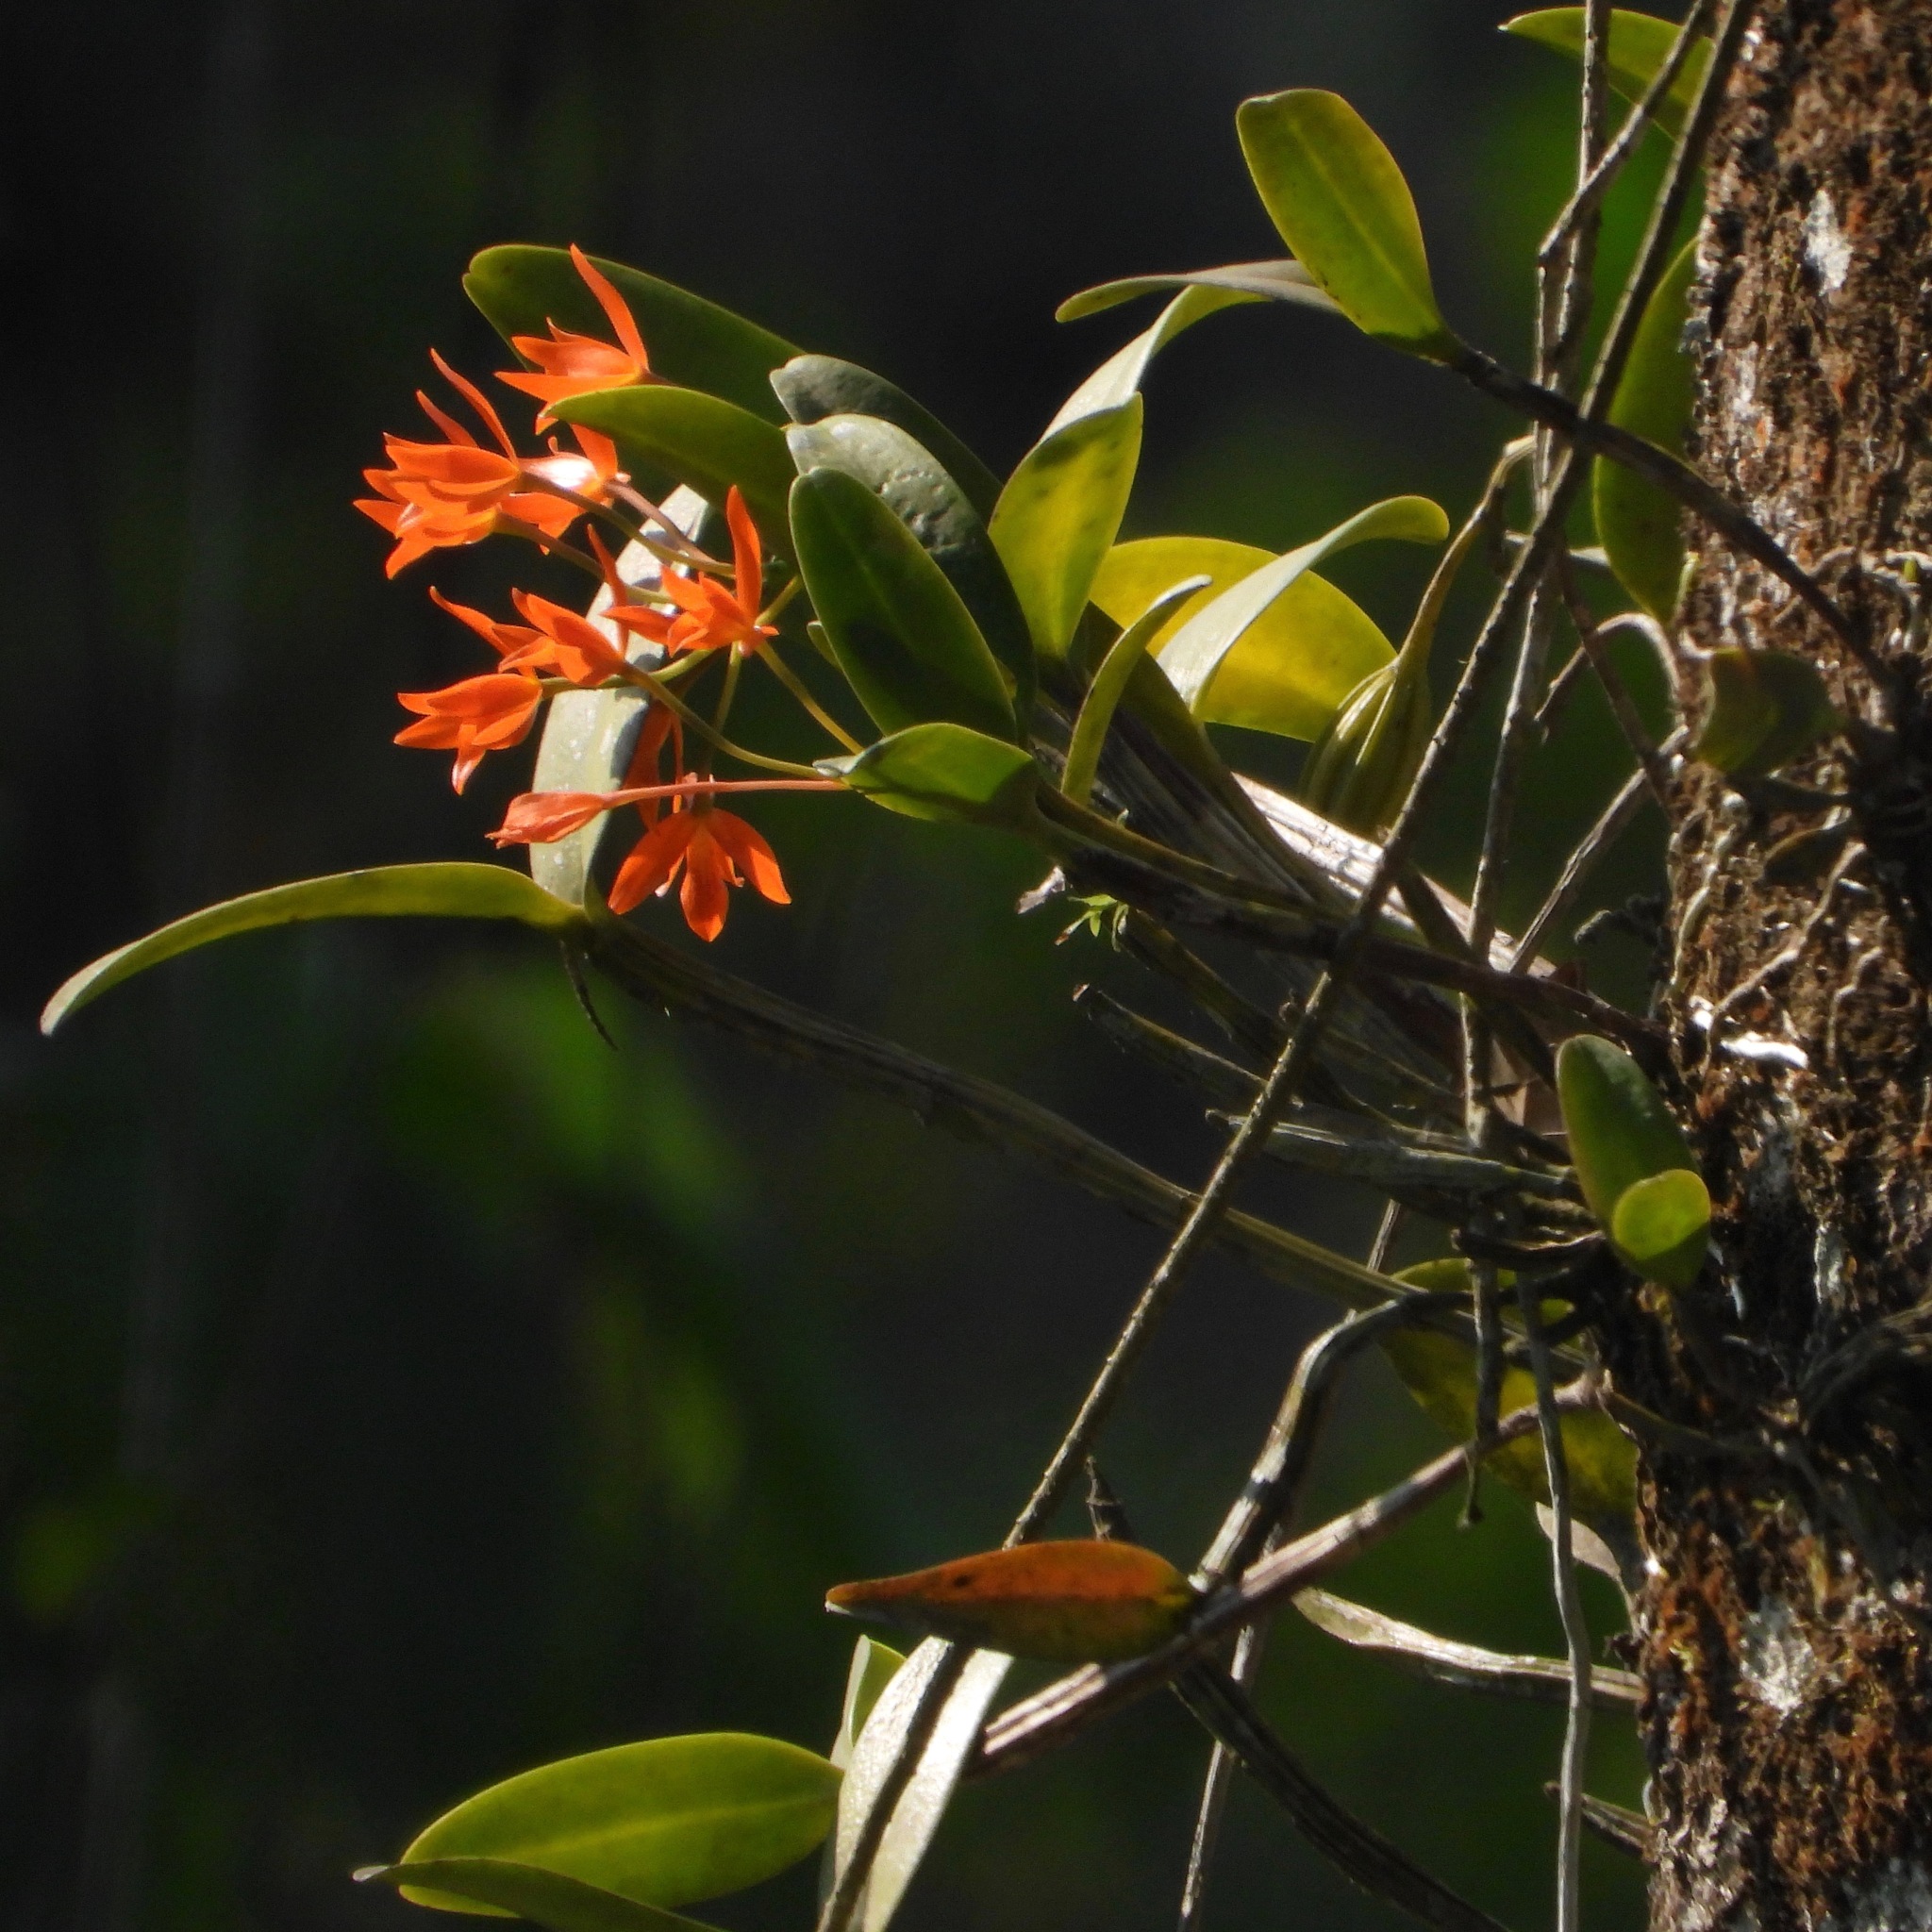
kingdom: Plantae
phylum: Tracheophyta
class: Liliopsida
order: Asparagales
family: Orchidaceae
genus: Guarianthe
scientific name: Guarianthe aurantiaca
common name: Orange cattleya
